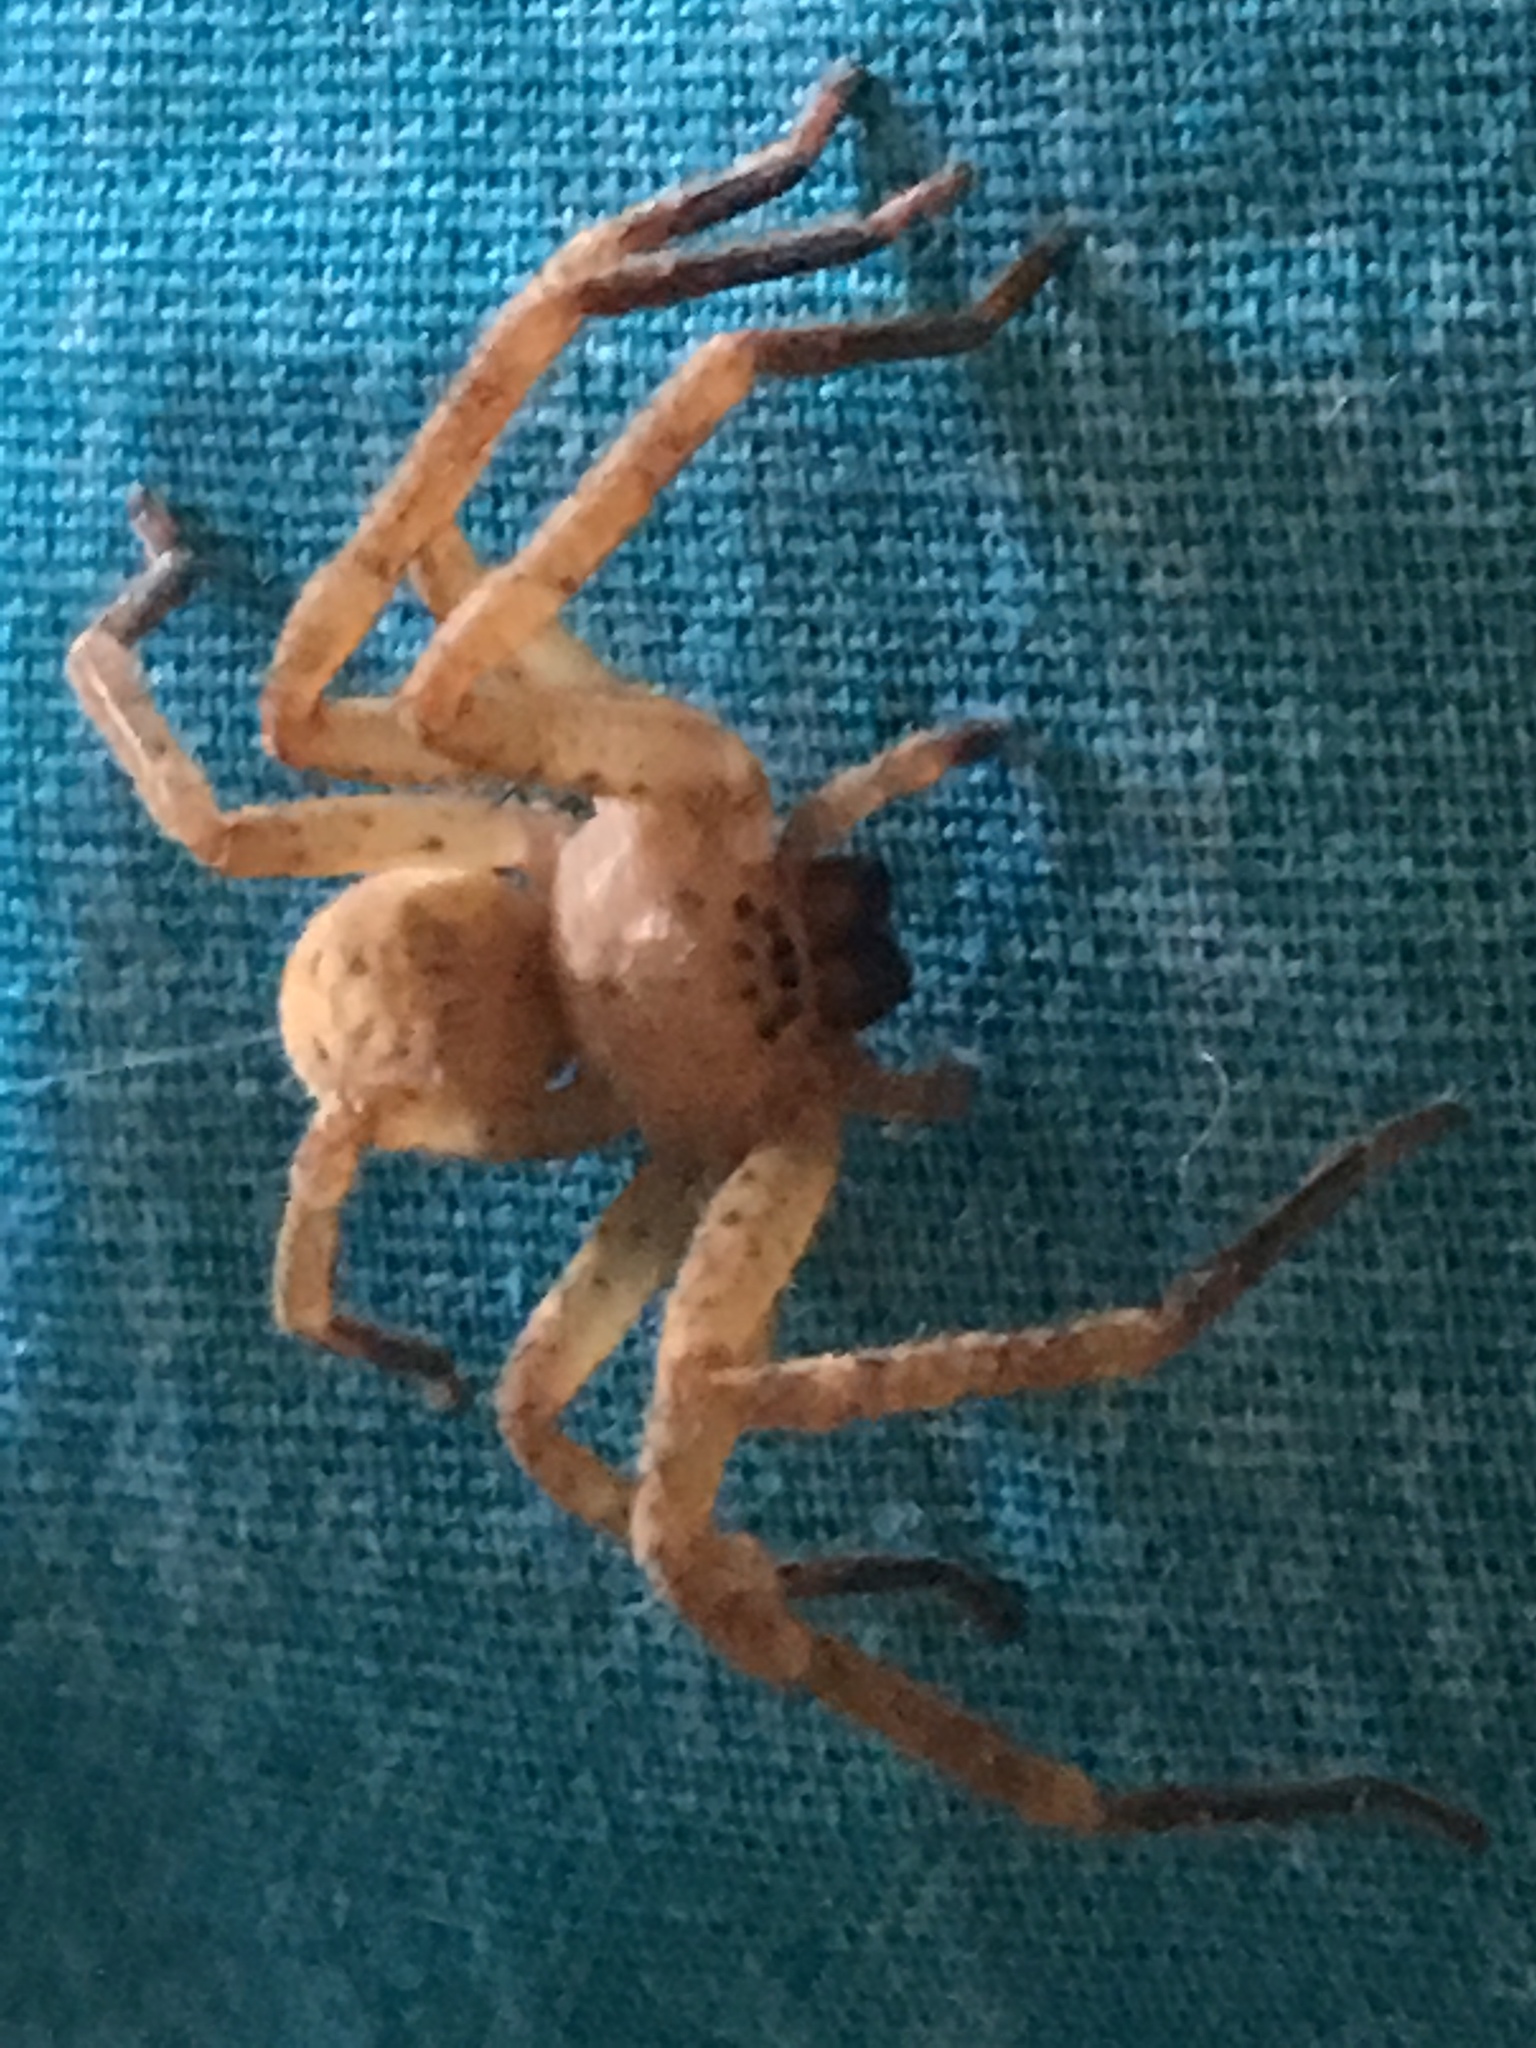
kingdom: Animalia
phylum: Arthropoda
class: Arachnida
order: Araneae
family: Sparassidae
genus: Olios
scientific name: Olios argelasius
